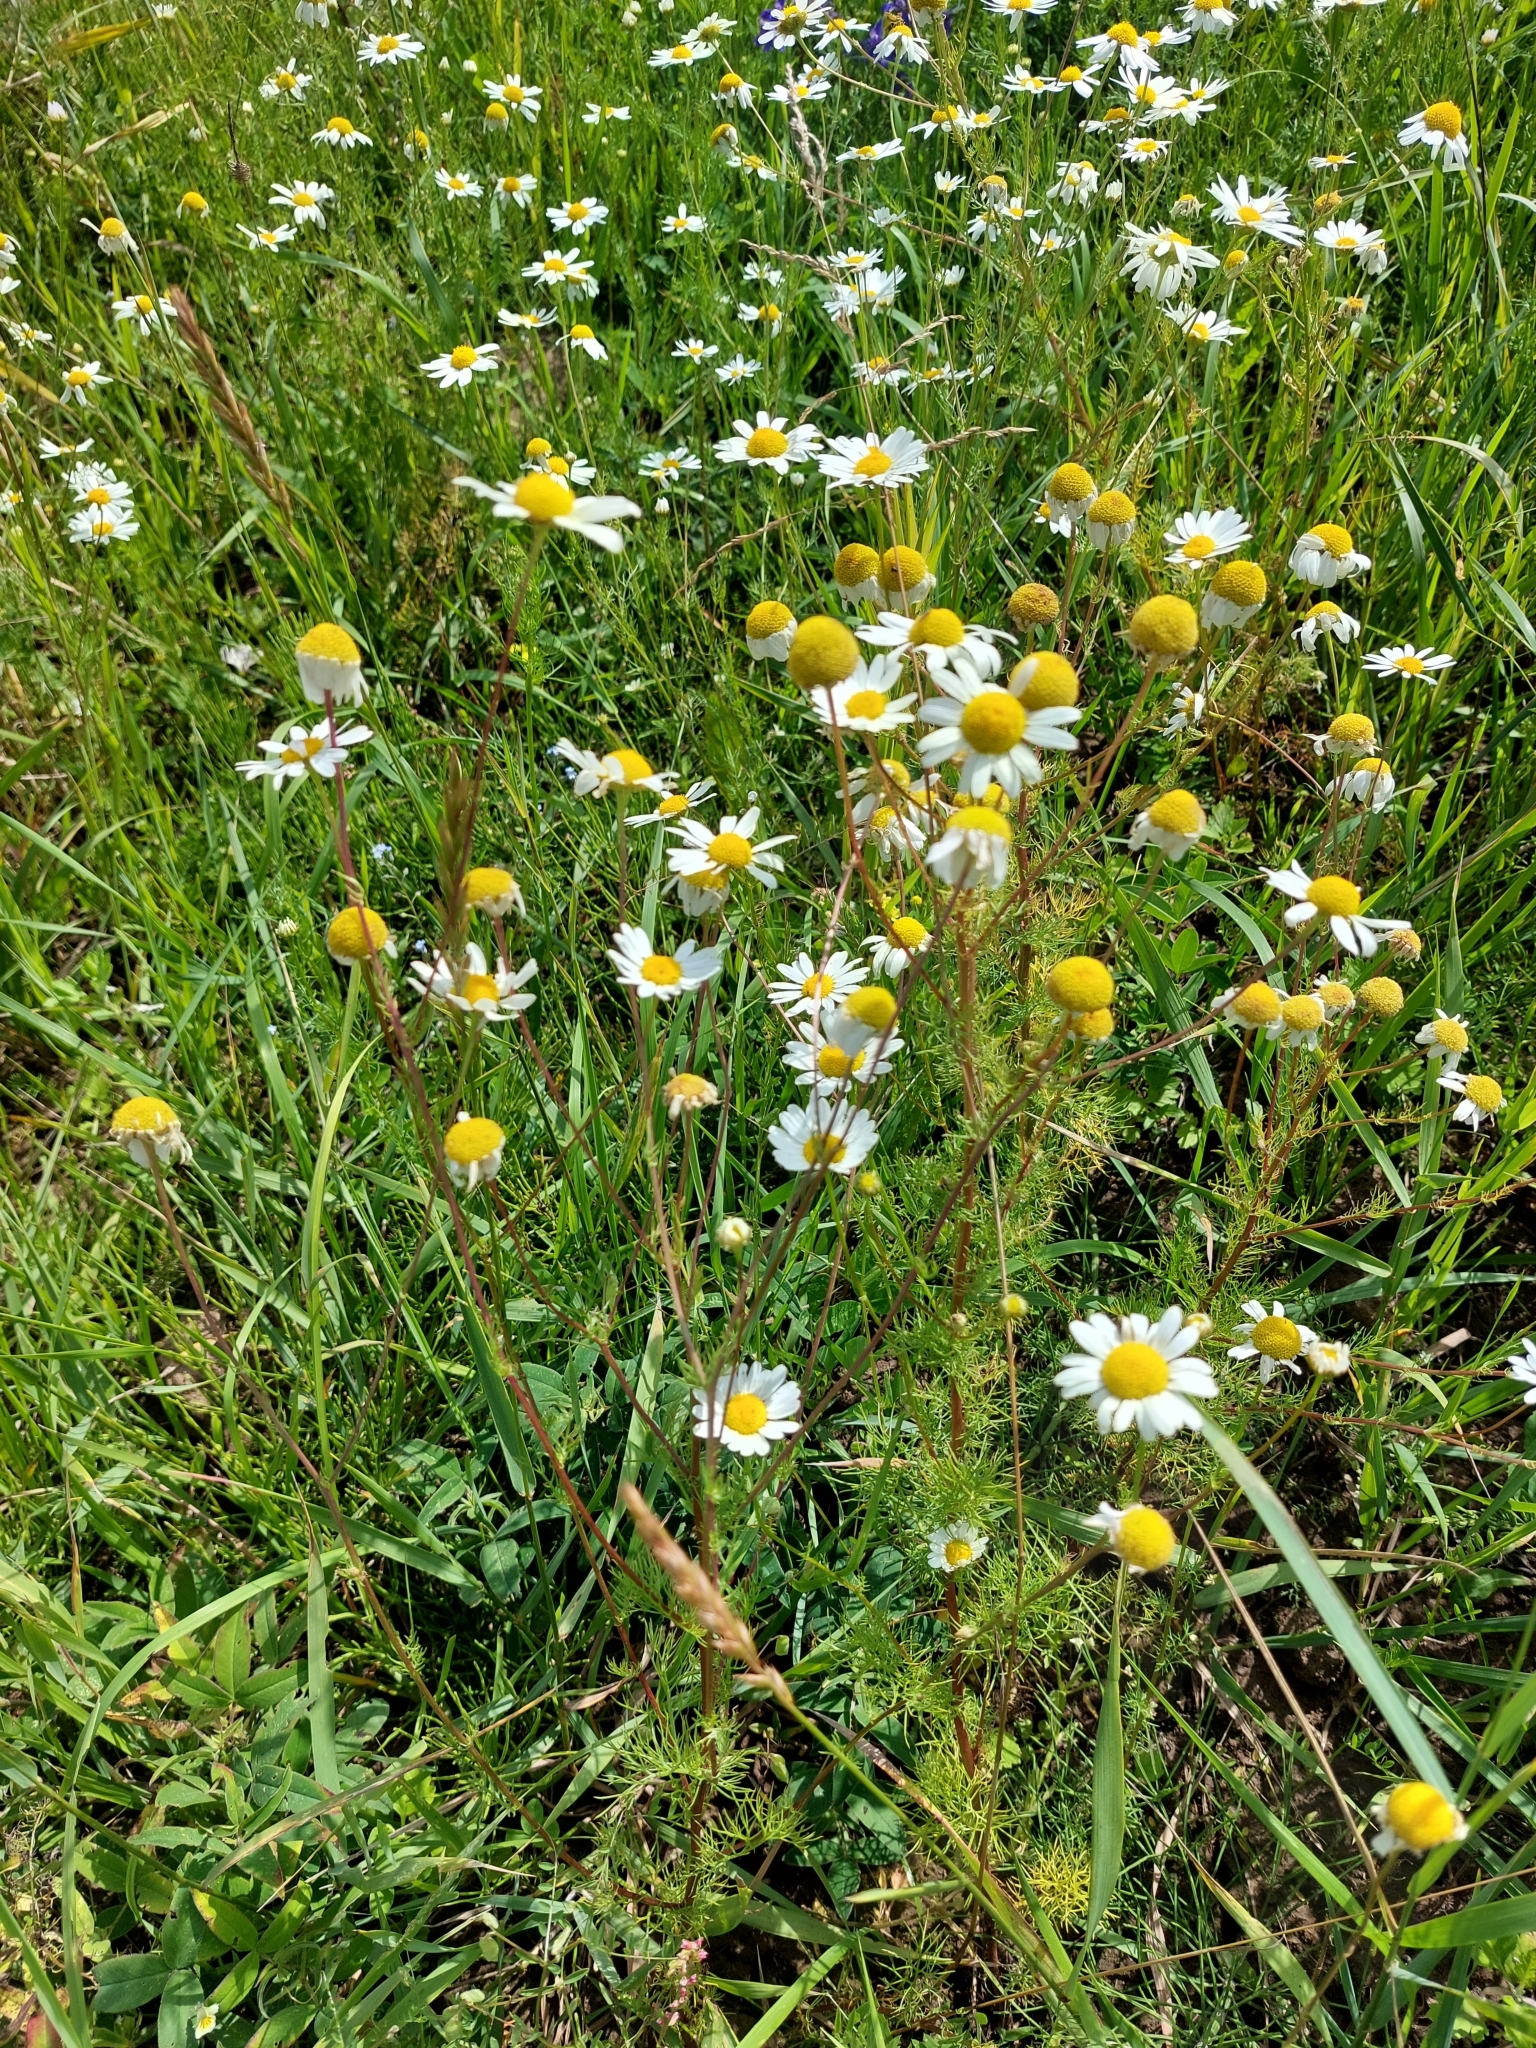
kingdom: Plantae
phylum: Tracheophyta
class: Magnoliopsida
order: Asterales
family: Asteraceae
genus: Tripleurospermum
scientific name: Tripleurospermum inodorum
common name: Scentless mayweed
